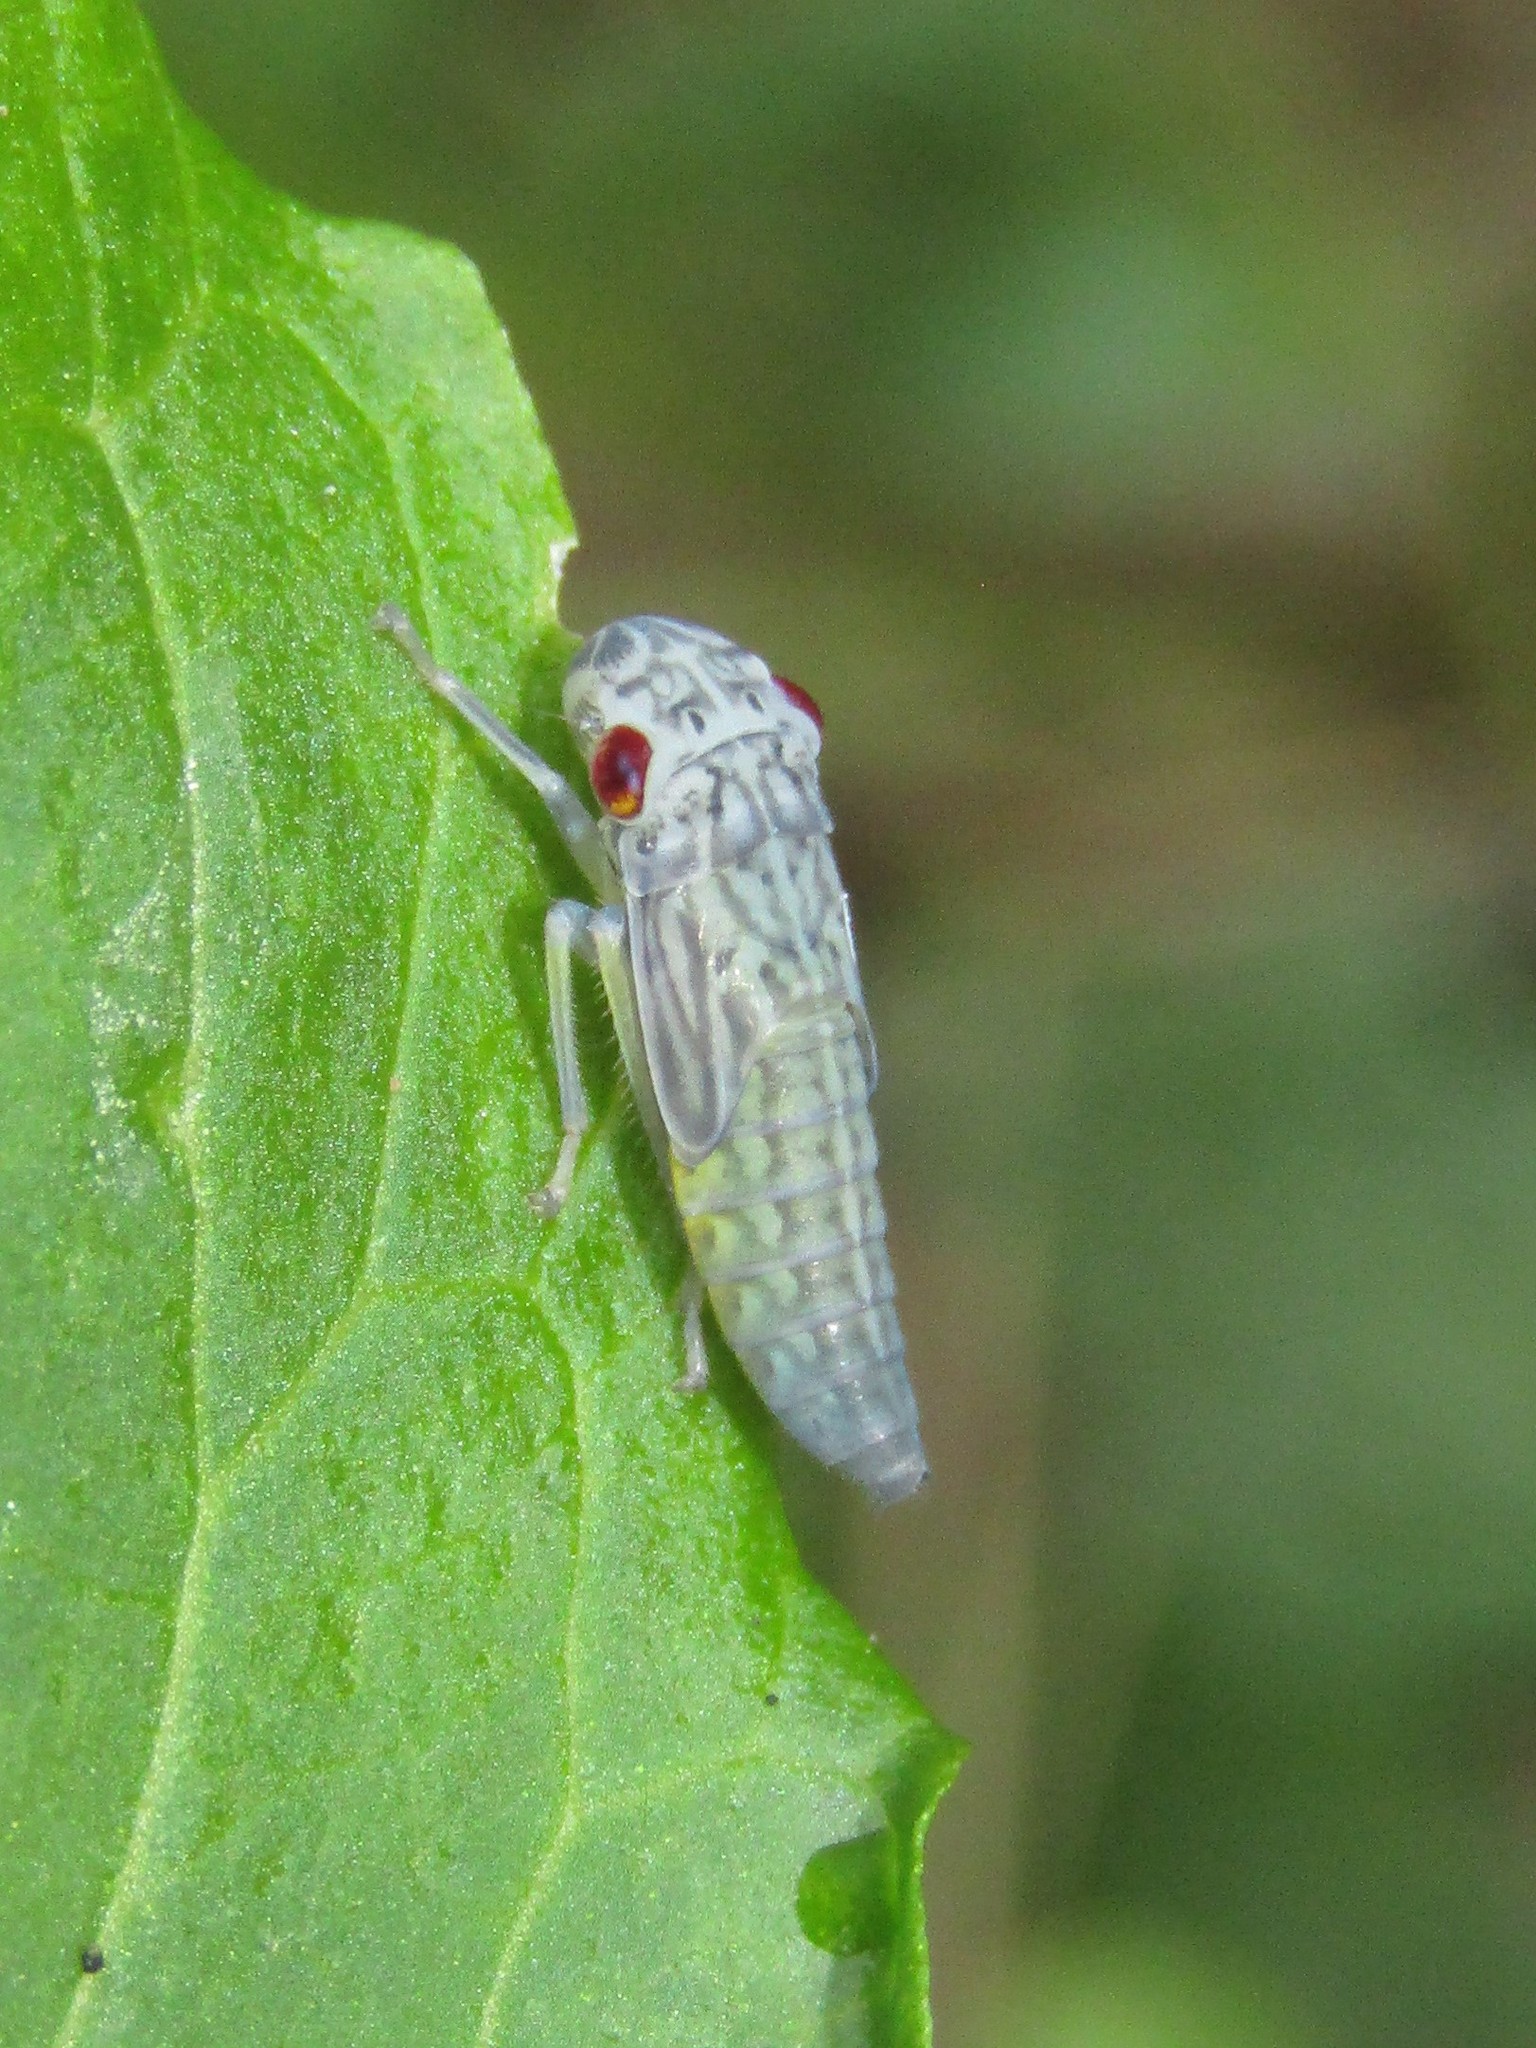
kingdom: Animalia
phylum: Arthropoda
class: Insecta
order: Hemiptera
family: Cicadellidae
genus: Oncometopia
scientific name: Oncometopia orbona
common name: Broad-headed sharpshooter
